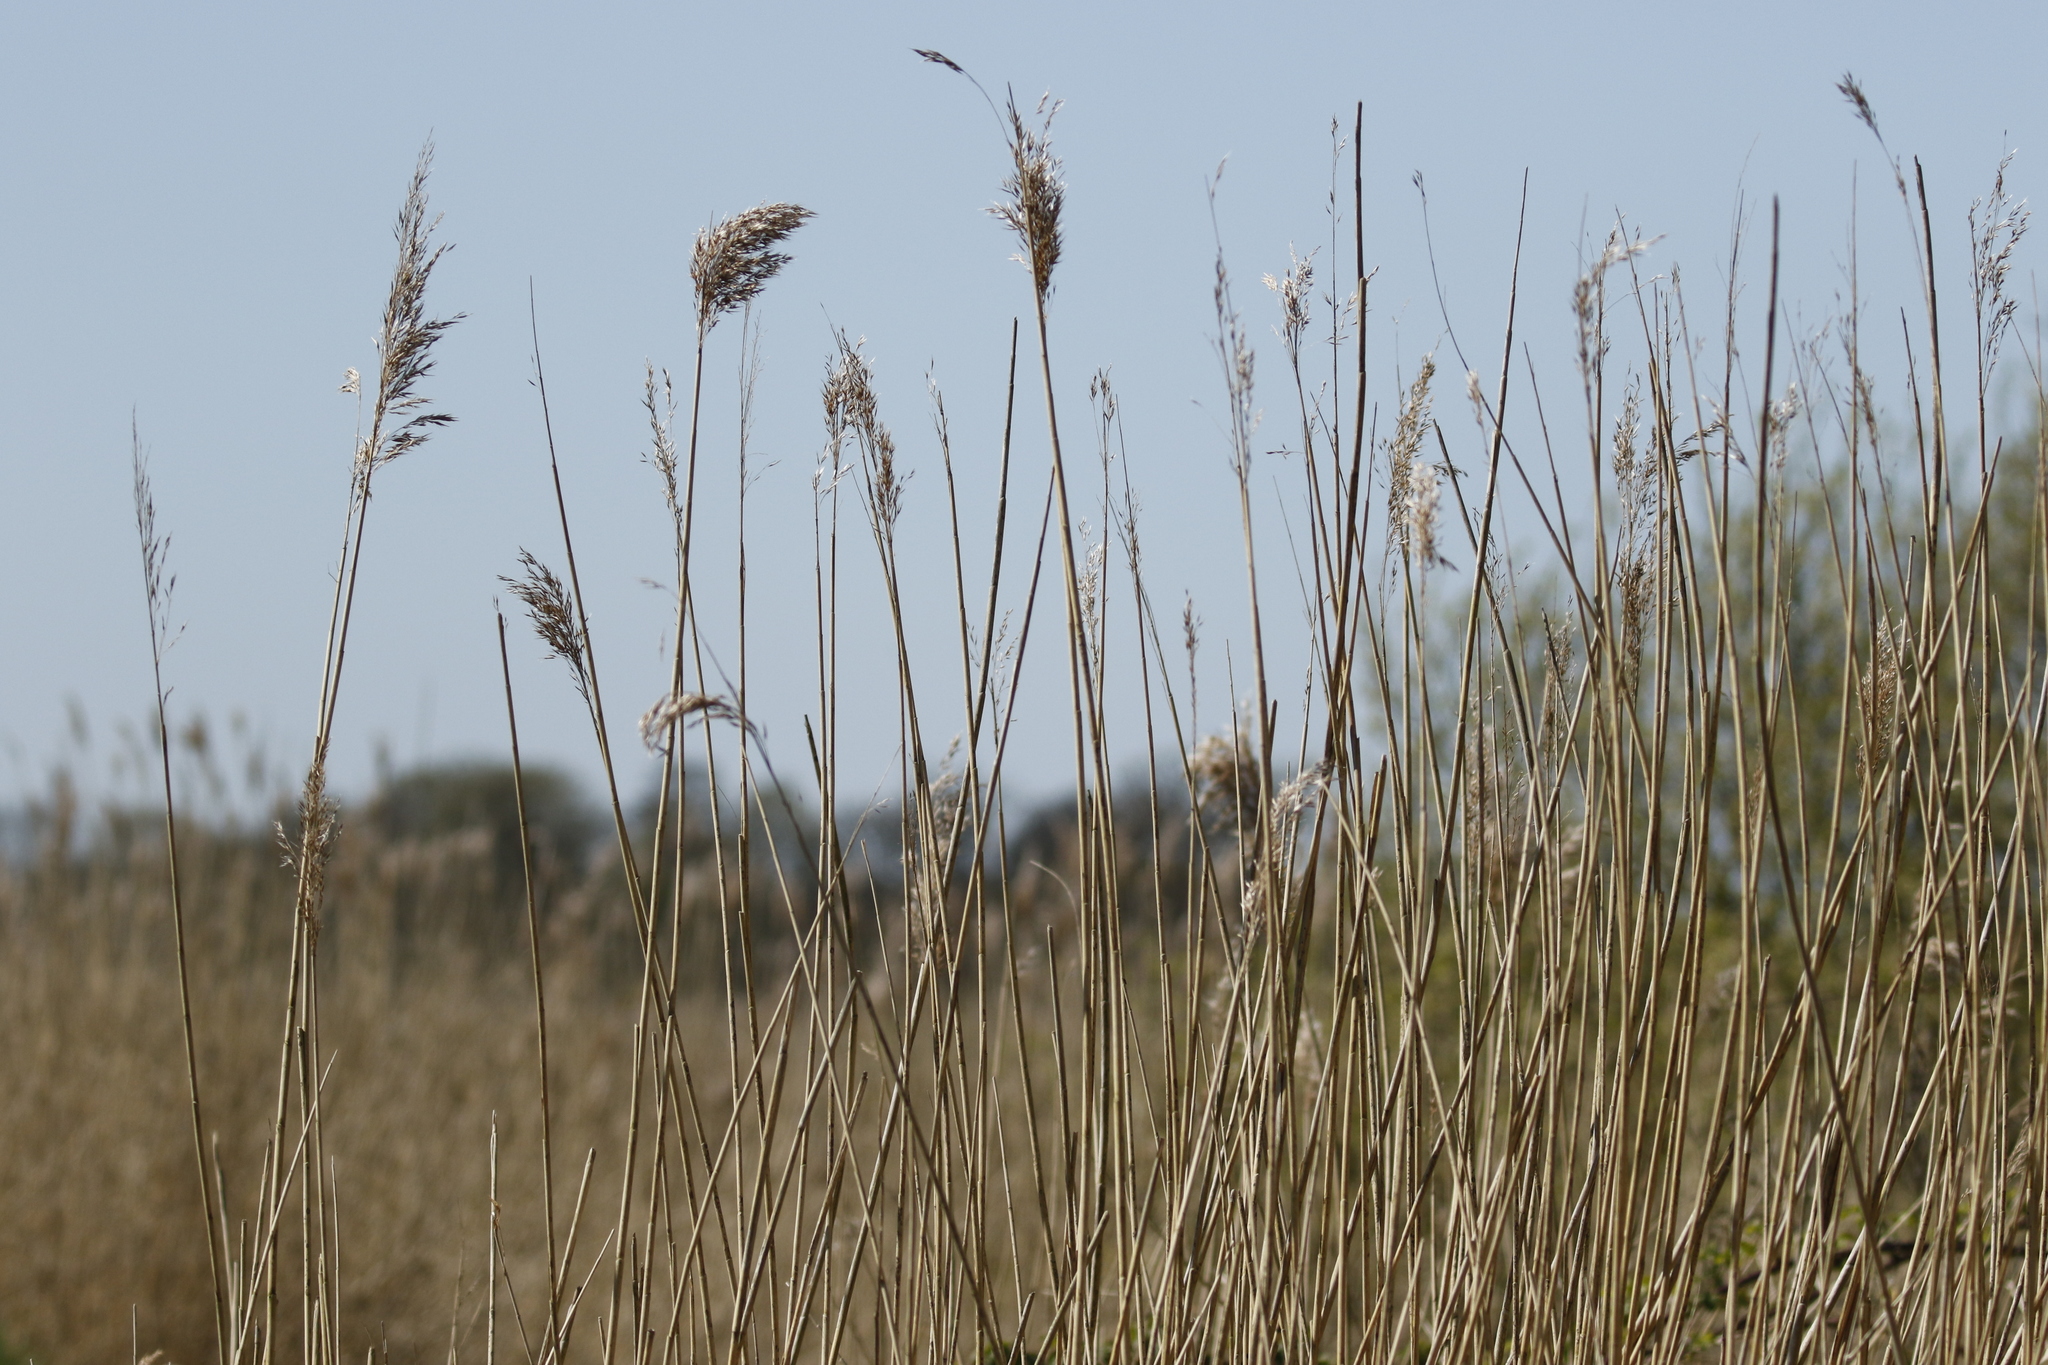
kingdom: Plantae
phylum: Tracheophyta
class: Liliopsida
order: Poales
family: Poaceae
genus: Phragmites
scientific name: Phragmites australis
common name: Common reed
